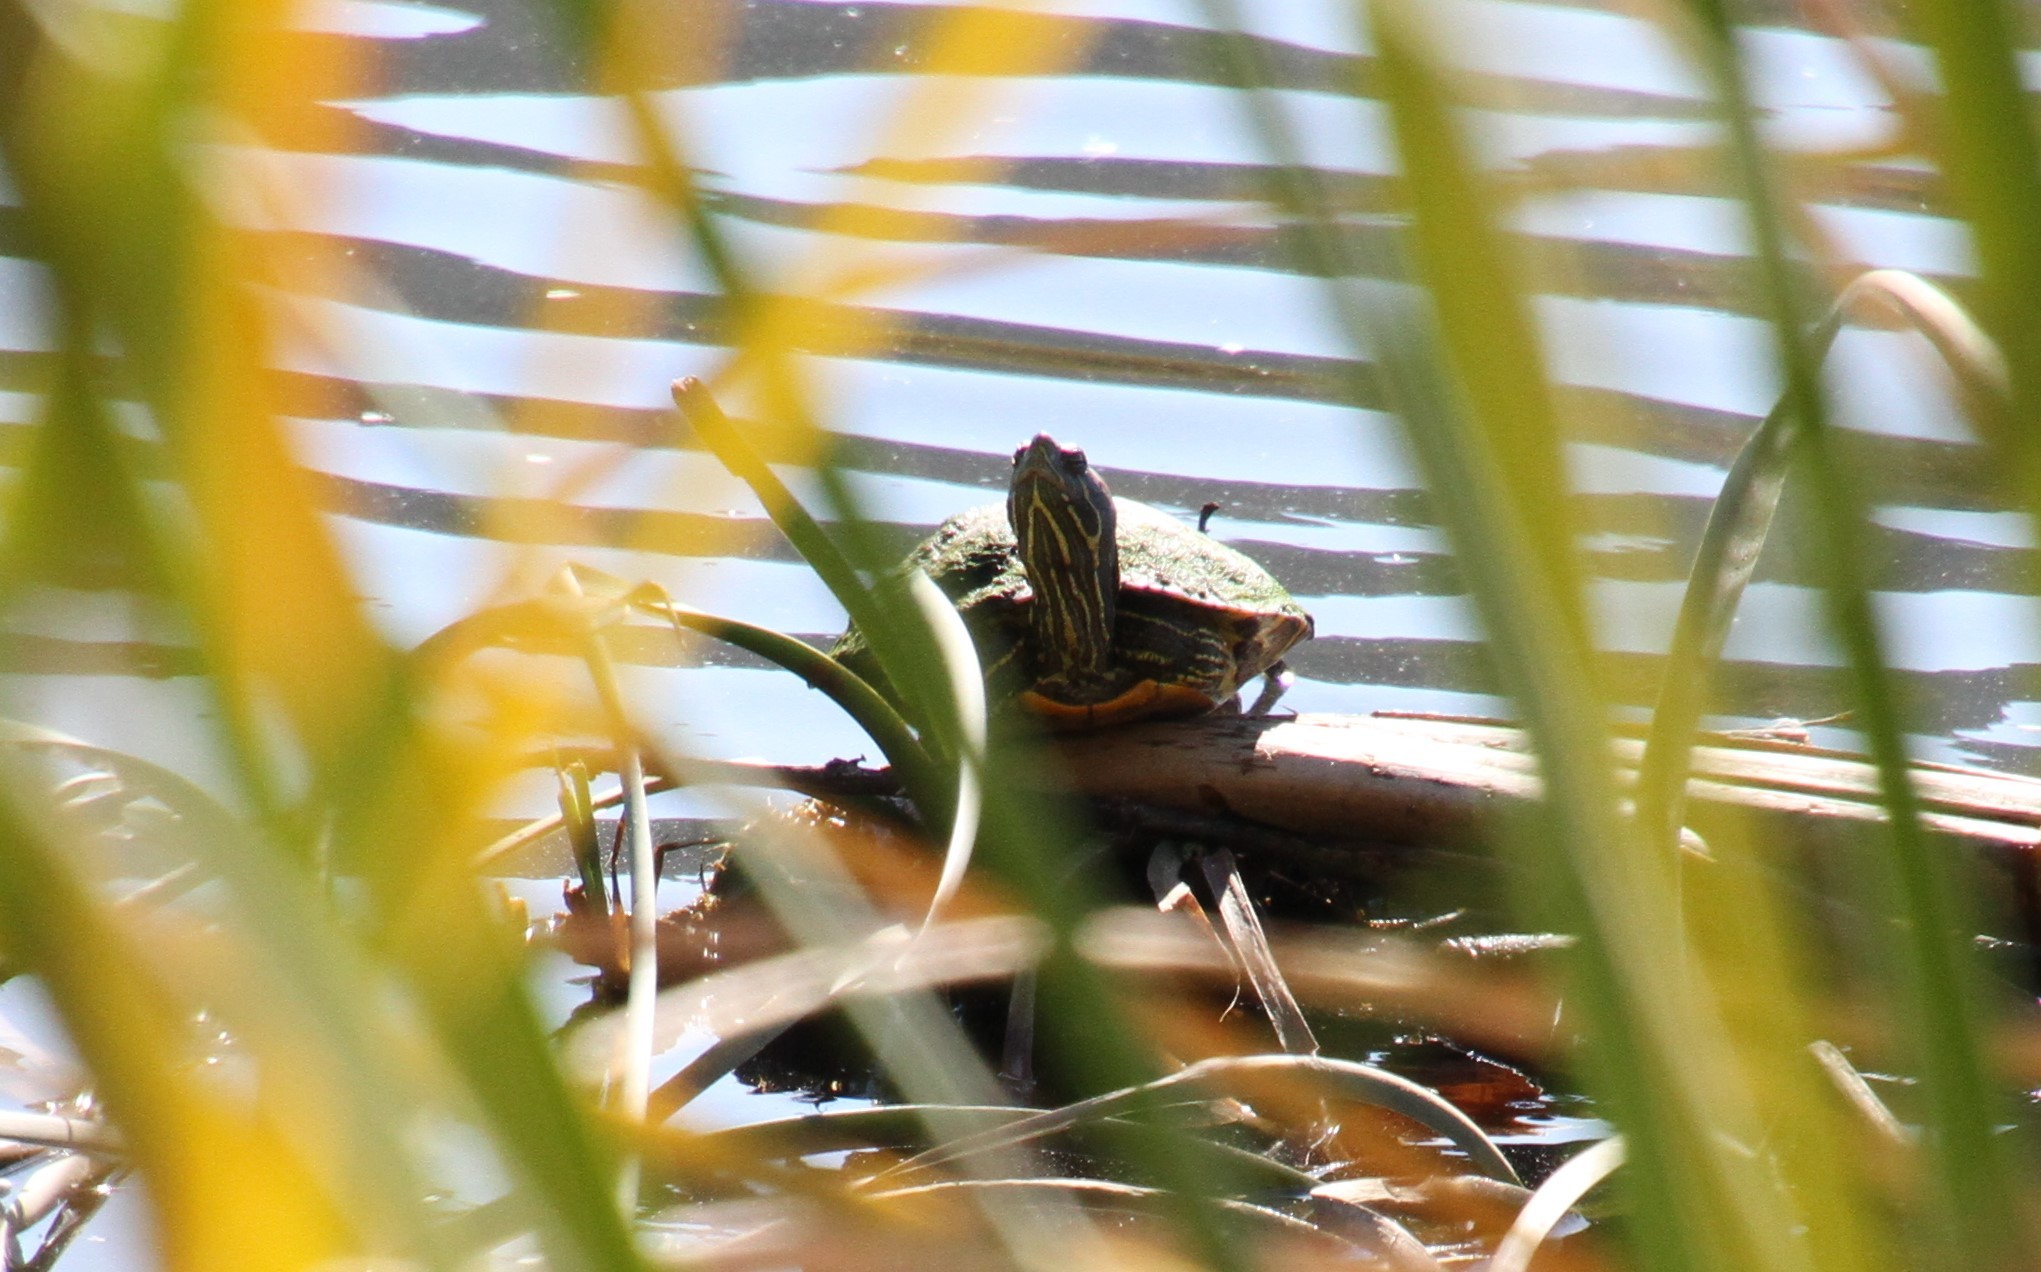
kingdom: Animalia
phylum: Chordata
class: Testudines
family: Emydidae
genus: Trachemys
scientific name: Trachemys scripta
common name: Slider
